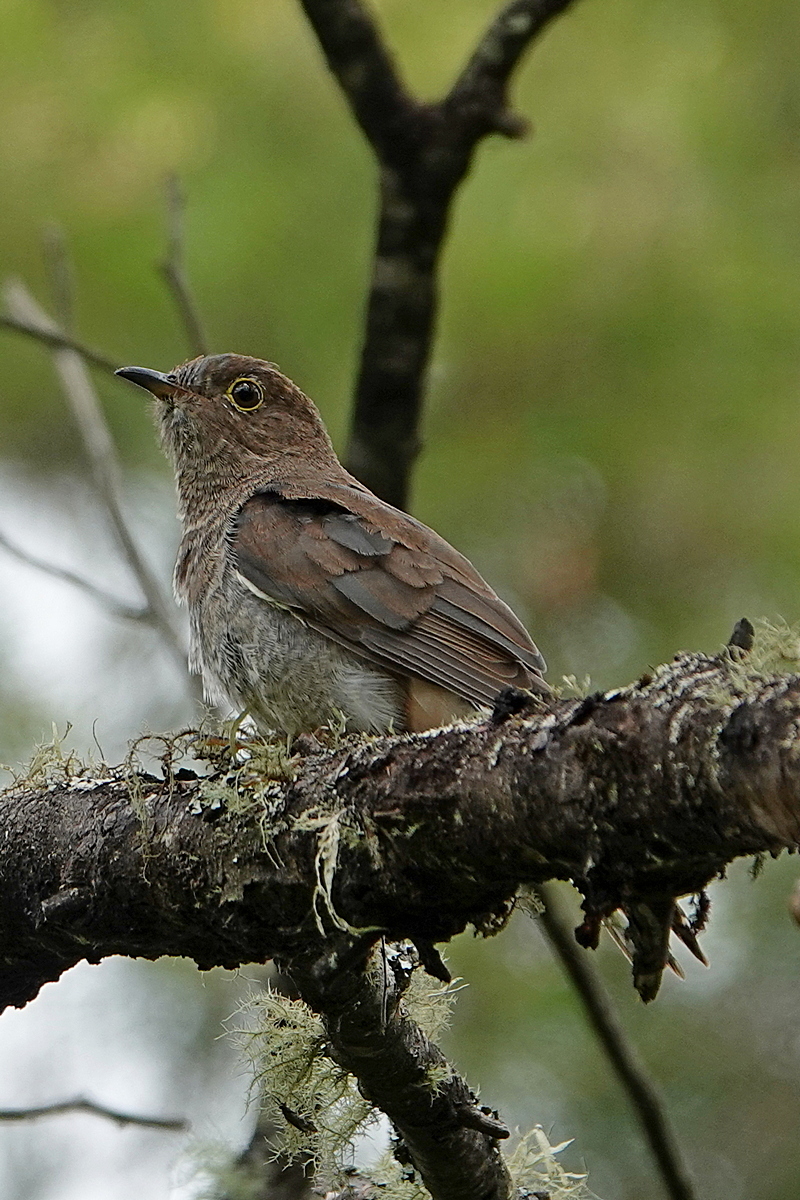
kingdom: Animalia
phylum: Chordata
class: Aves
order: Cuculiformes
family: Cuculidae
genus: Cacomantis
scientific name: Cacomantis flabelliformis
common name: Fan-tailed cuckoo
